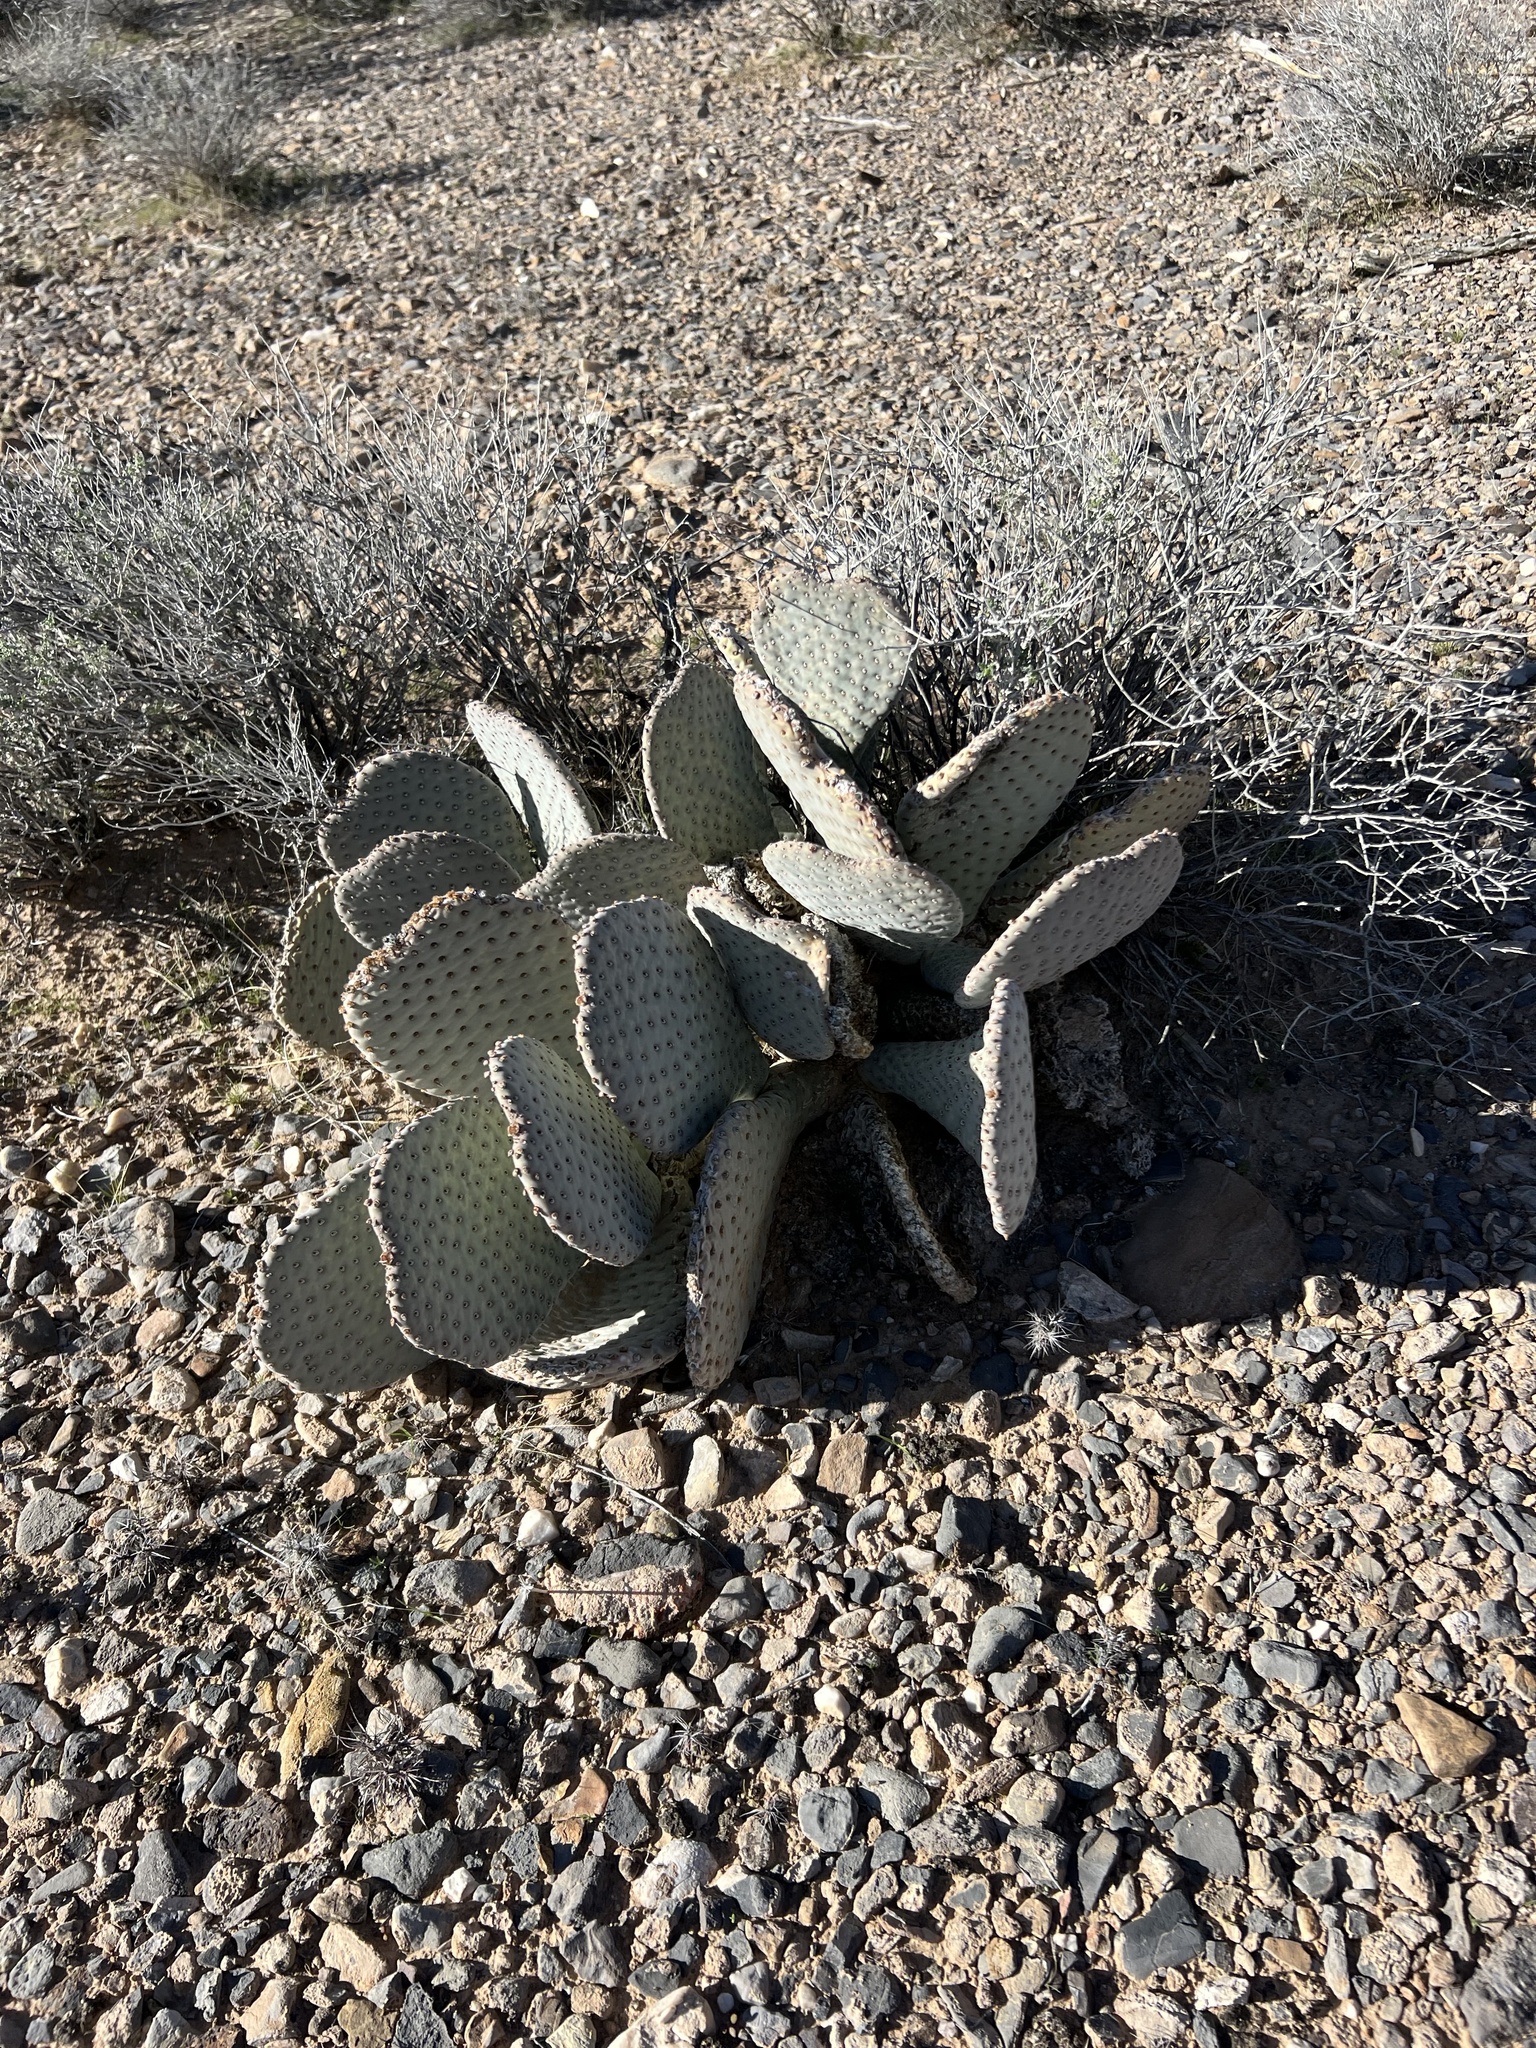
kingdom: Plantae
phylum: Tracheophyta
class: Magnoliopsida
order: Caryophyllales
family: Cactaceae
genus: Opuntia
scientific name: Opuntia basilaris
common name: Beavertail prickly-pear
